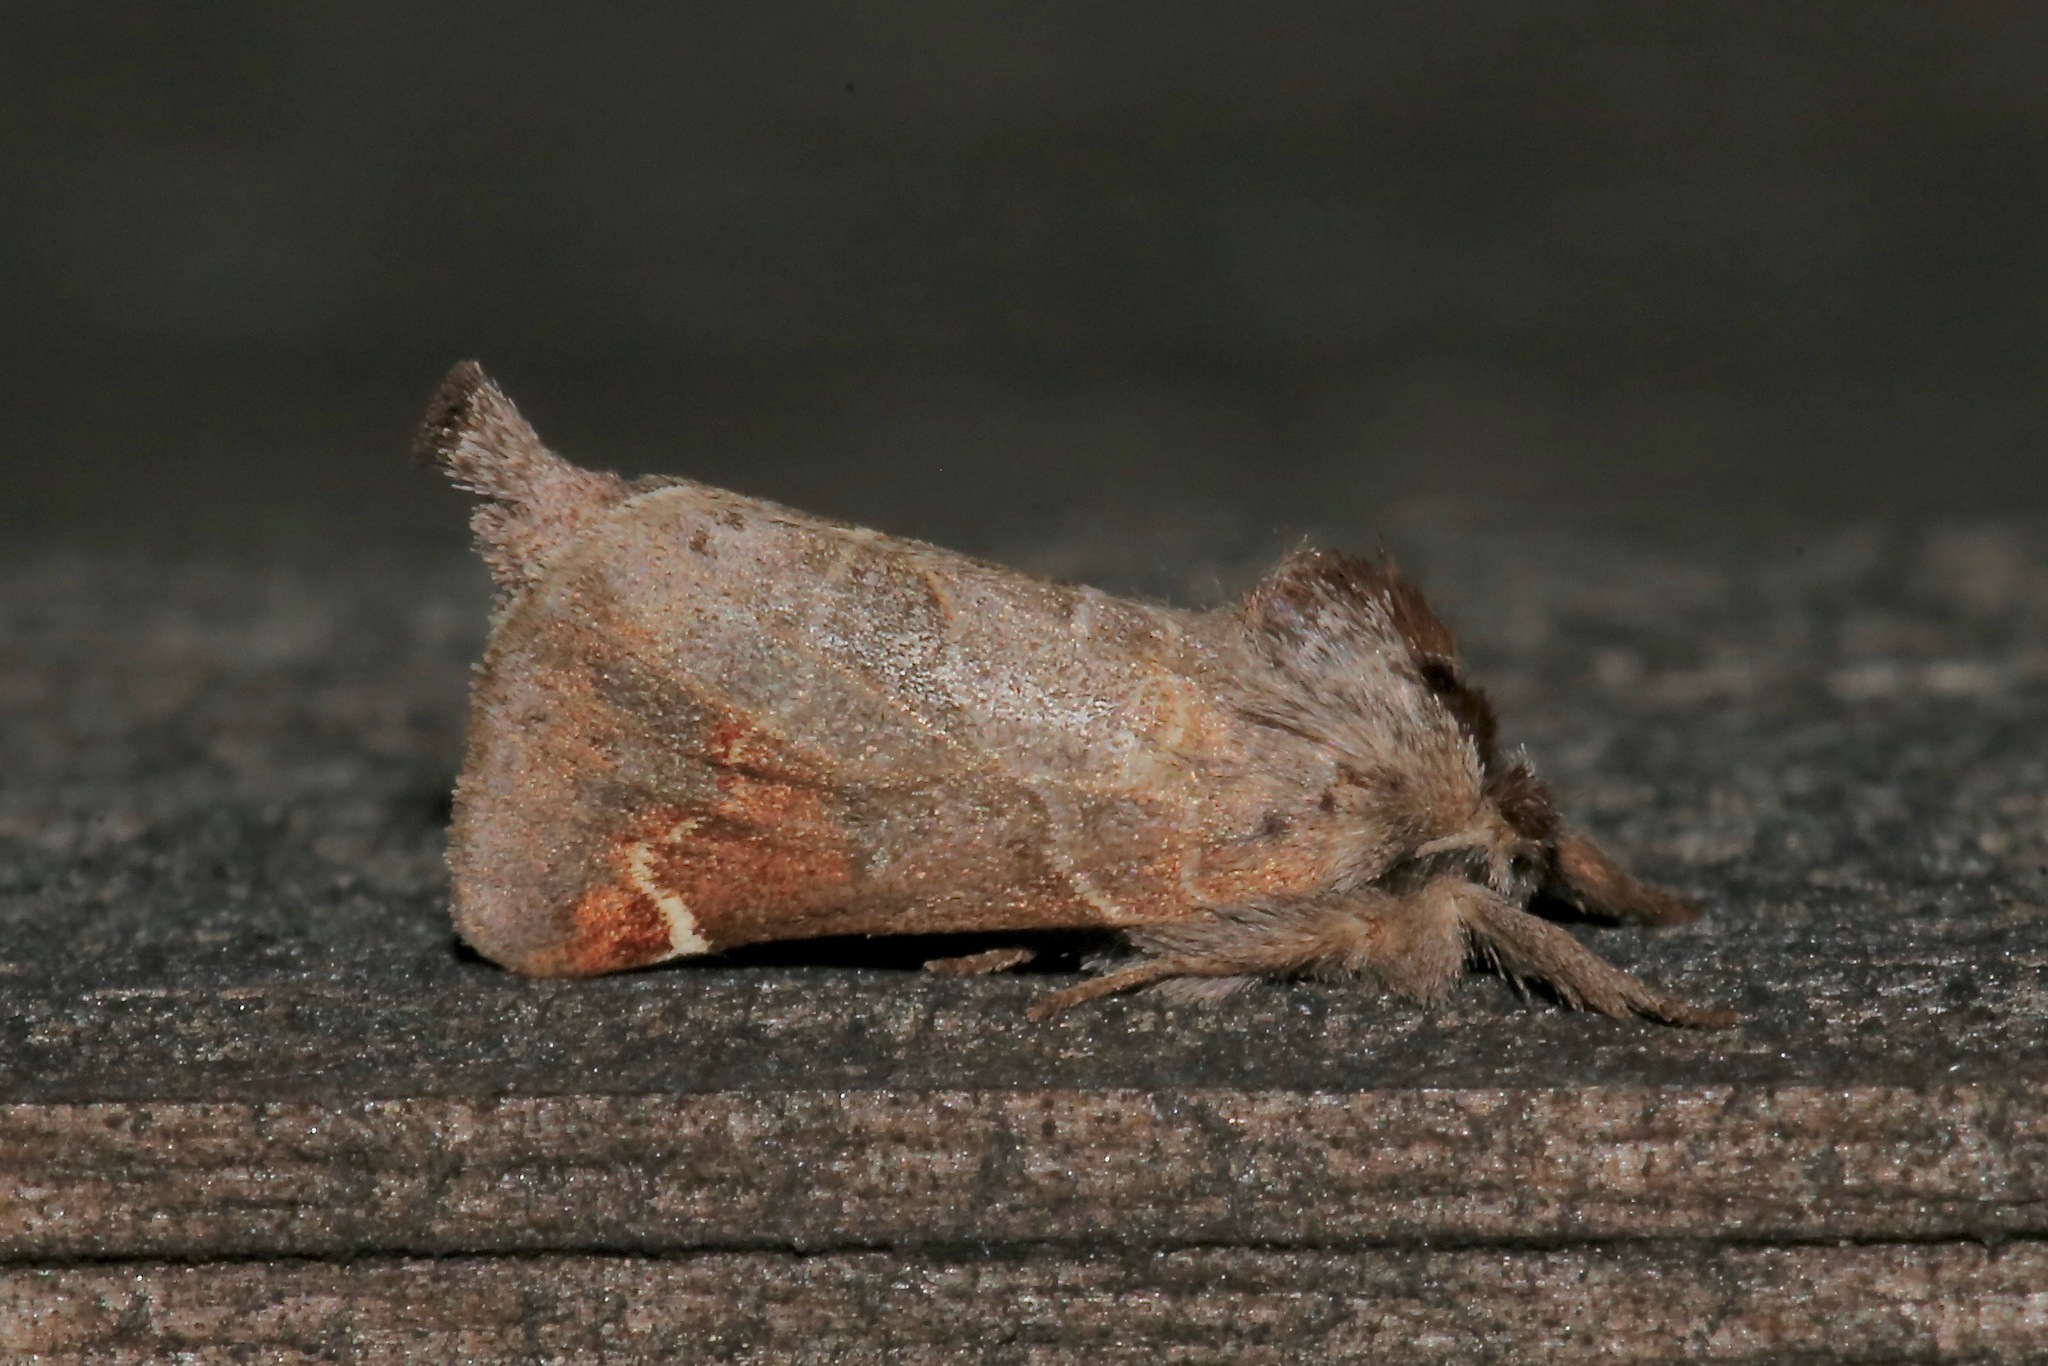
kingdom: Animalia
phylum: Arthropoda
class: Insecta
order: Lepidoptera
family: Notodontidae
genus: Clostera
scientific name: Clostera apicalis
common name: Apical prominent
